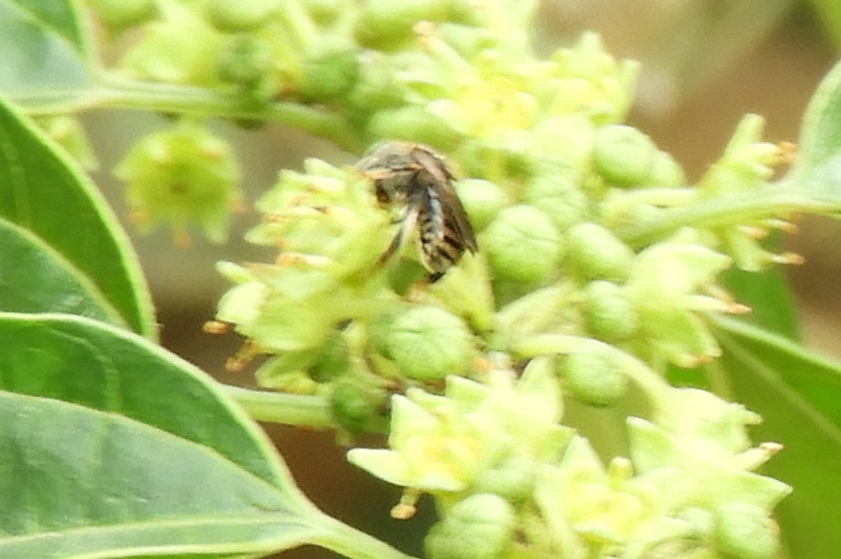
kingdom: Animalia
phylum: Arthropoda
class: Insecta
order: Hymenoptera
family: Apidae
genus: Nannotrigona
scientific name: Nannotrigona perilampoides
